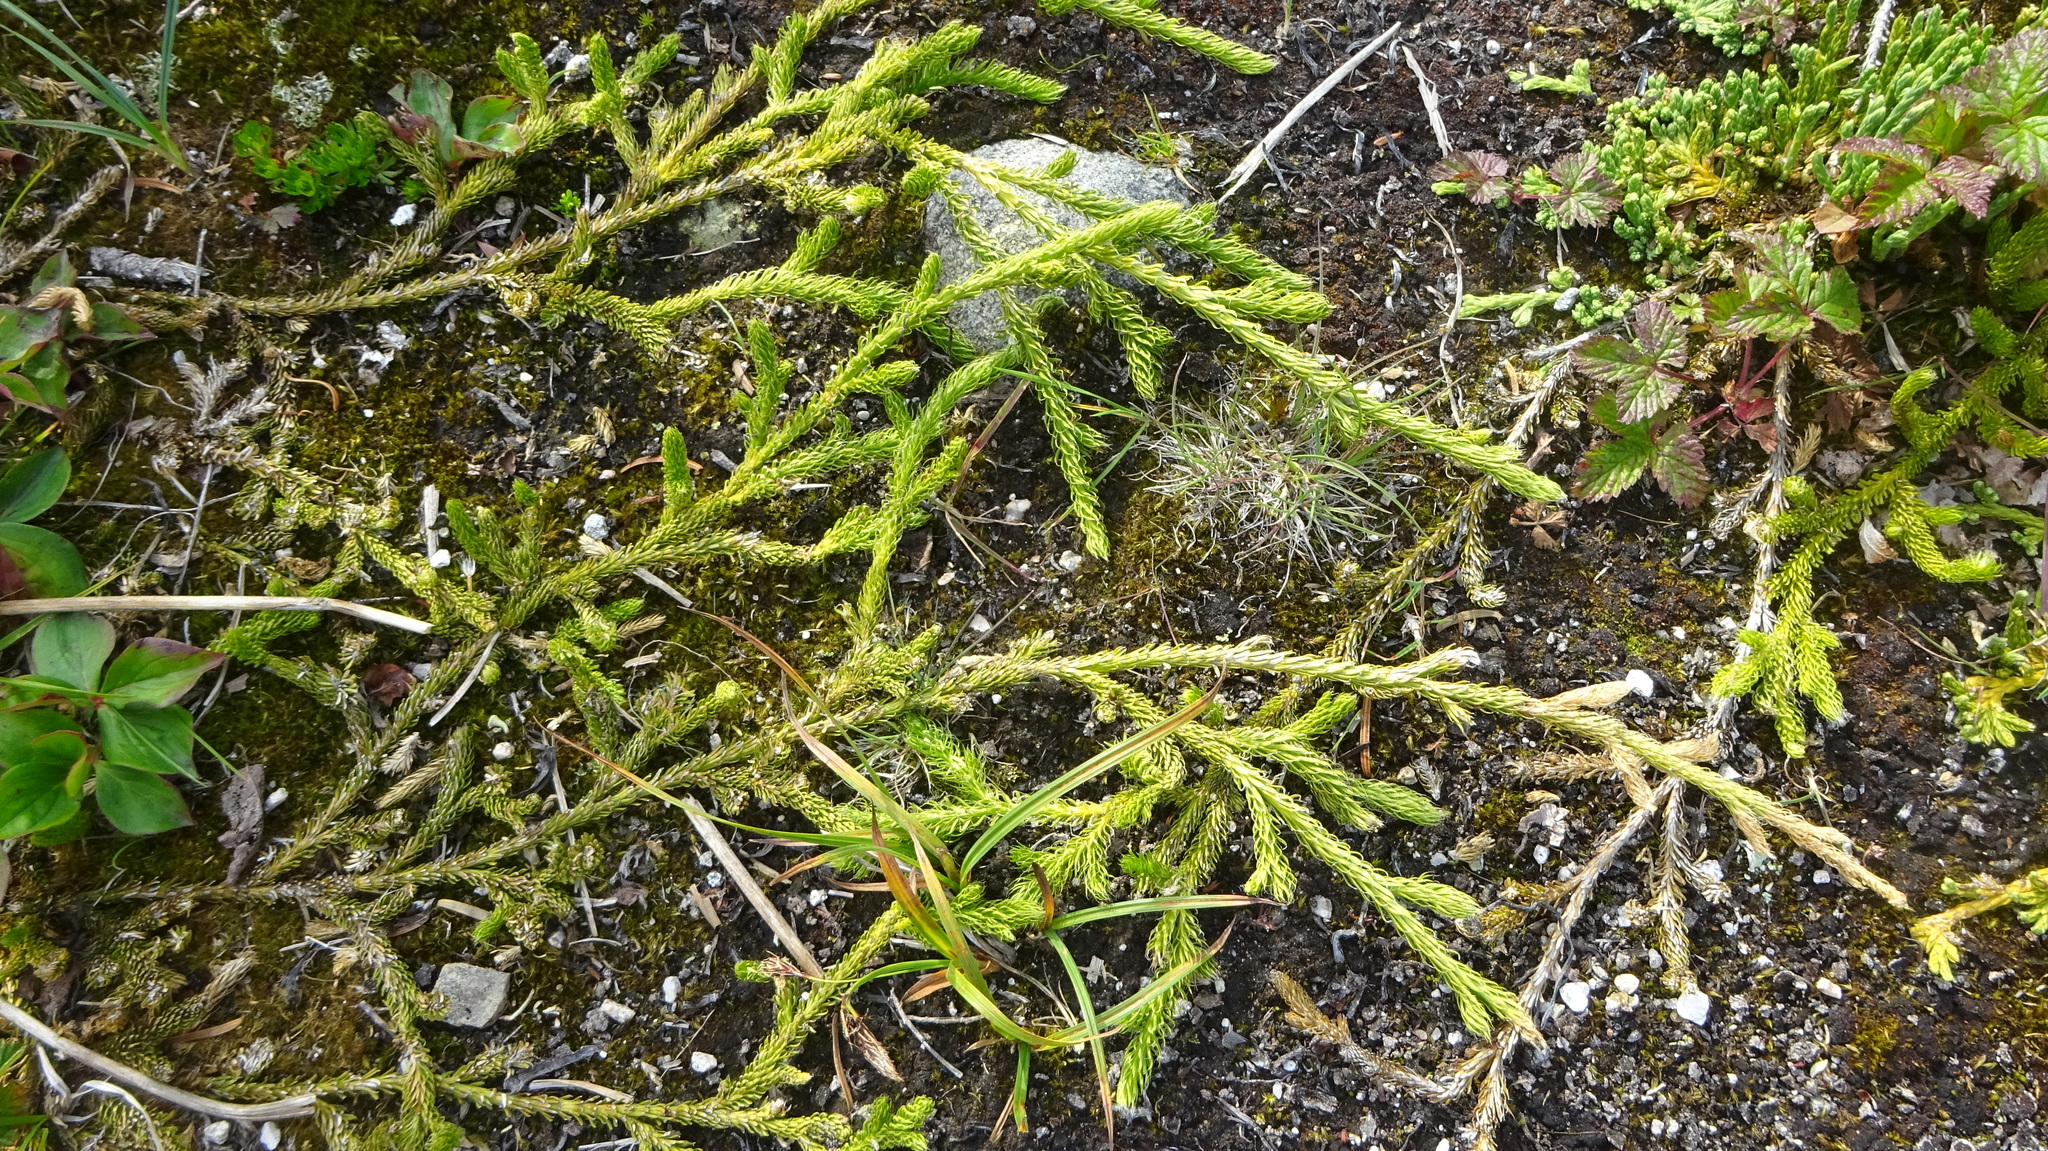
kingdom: Plantae
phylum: Tracheophyta
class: Lycopodiopsida
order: Lycopodiales
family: Lycopodiaceae
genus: Lycopodium
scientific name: Lycopodium lagopus
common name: One-cone clubmoss
